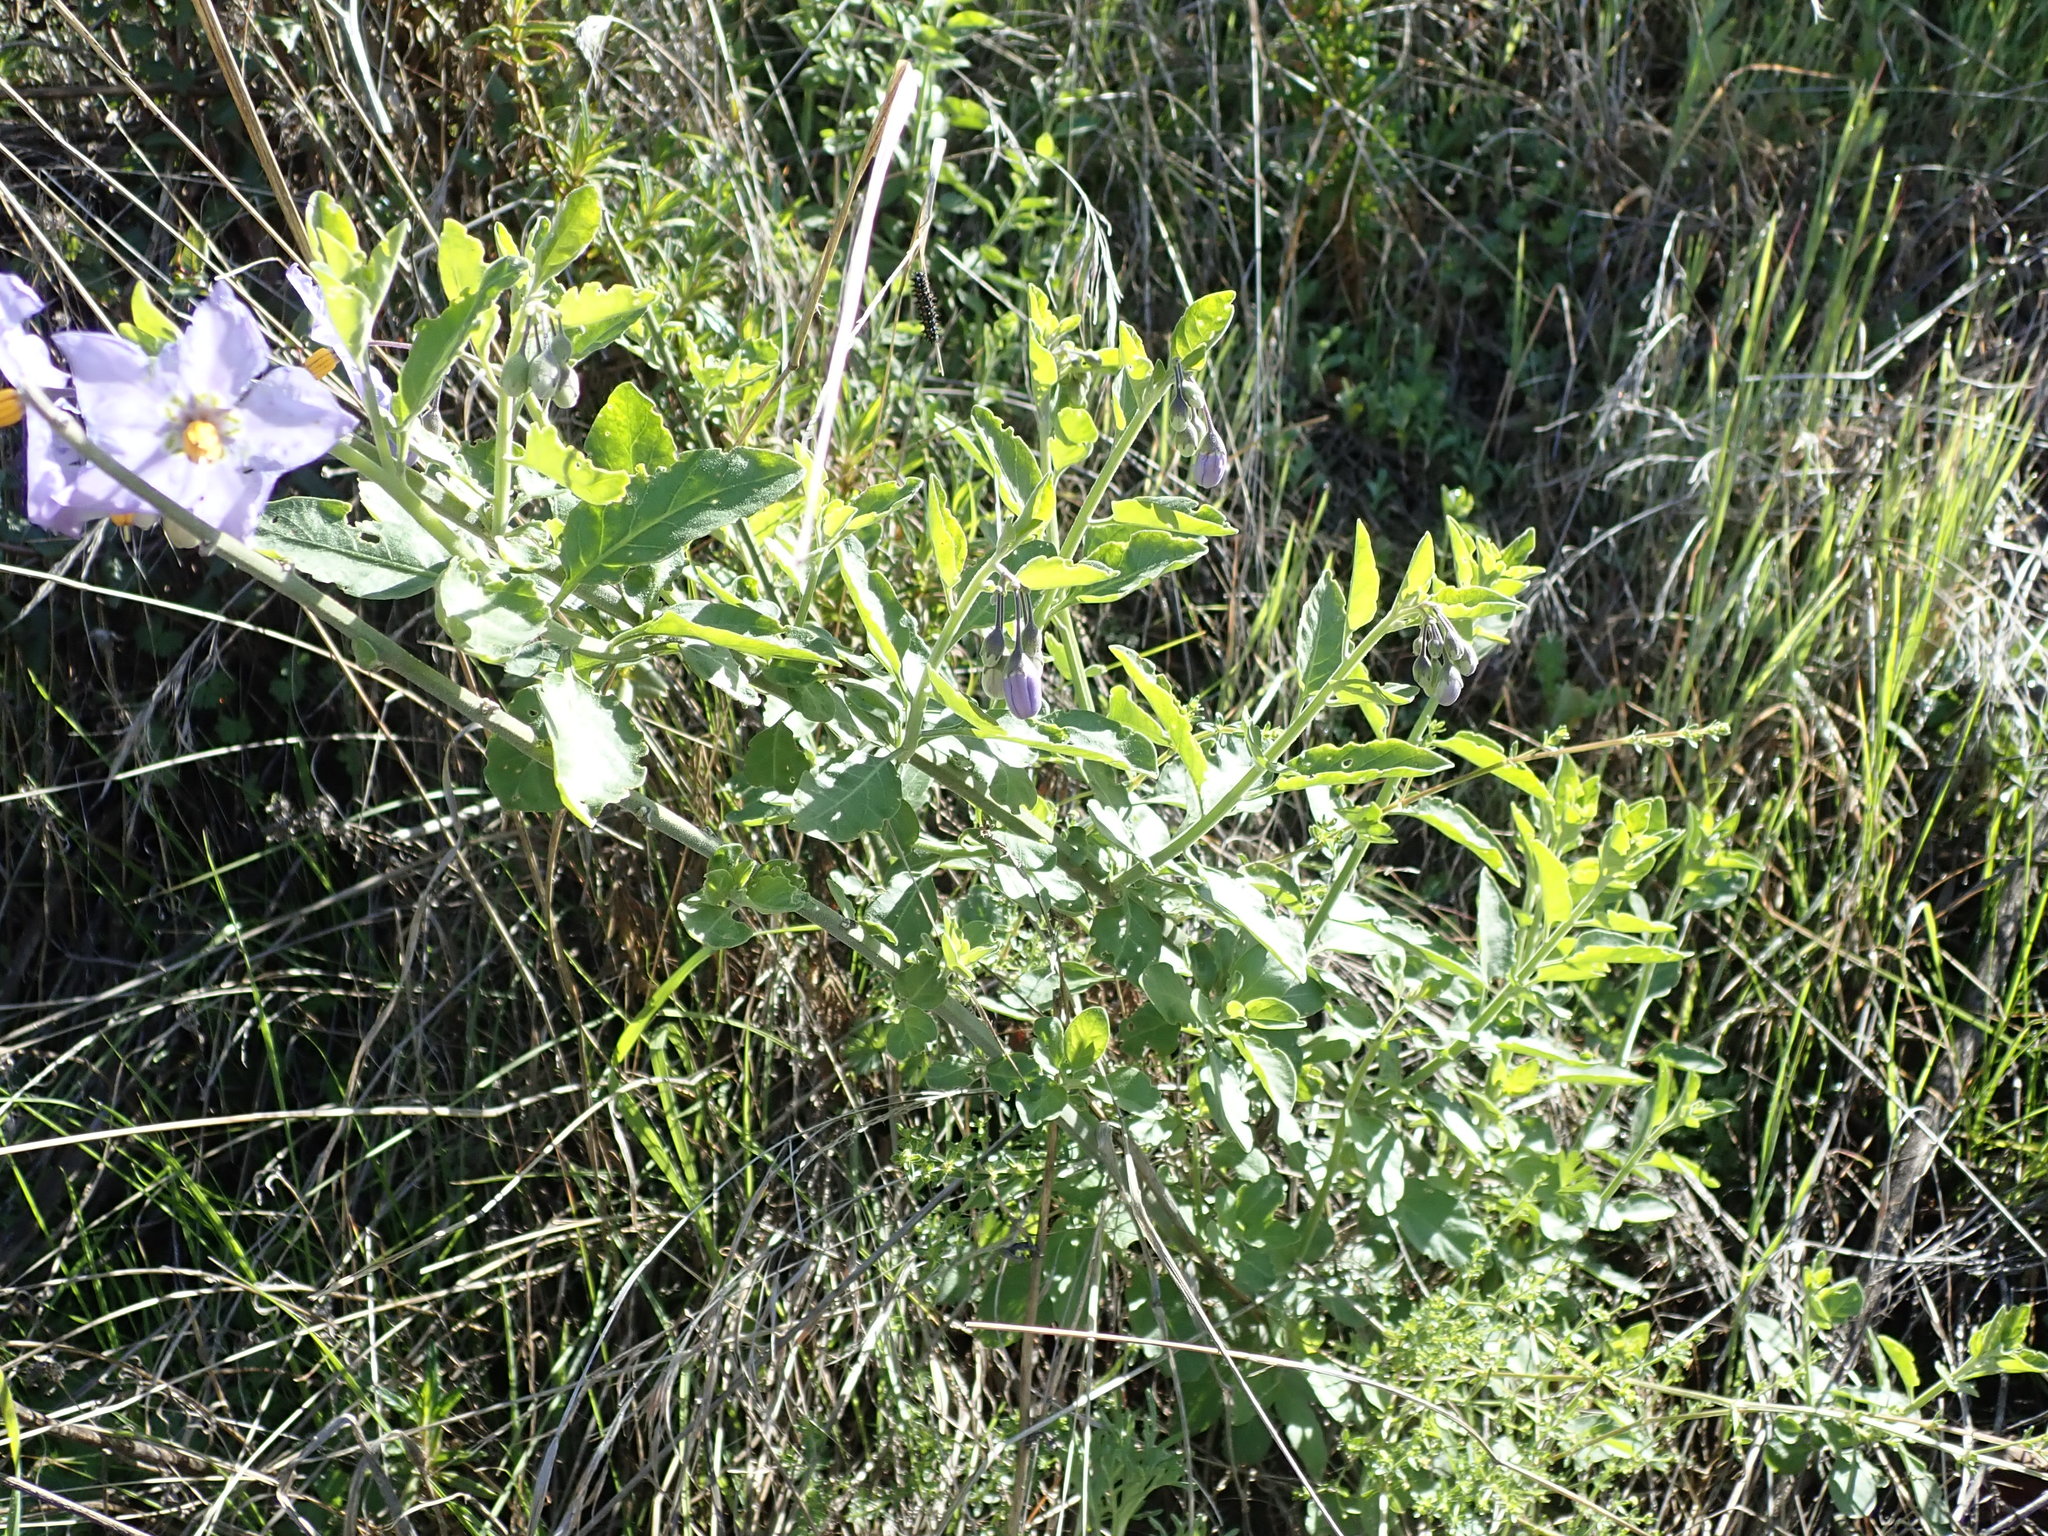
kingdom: Plantae
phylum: Tracheophyta
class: Magnoliopsida
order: Solanales
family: Solanaceae
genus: Solanum
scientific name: Solanum umbelliferum
